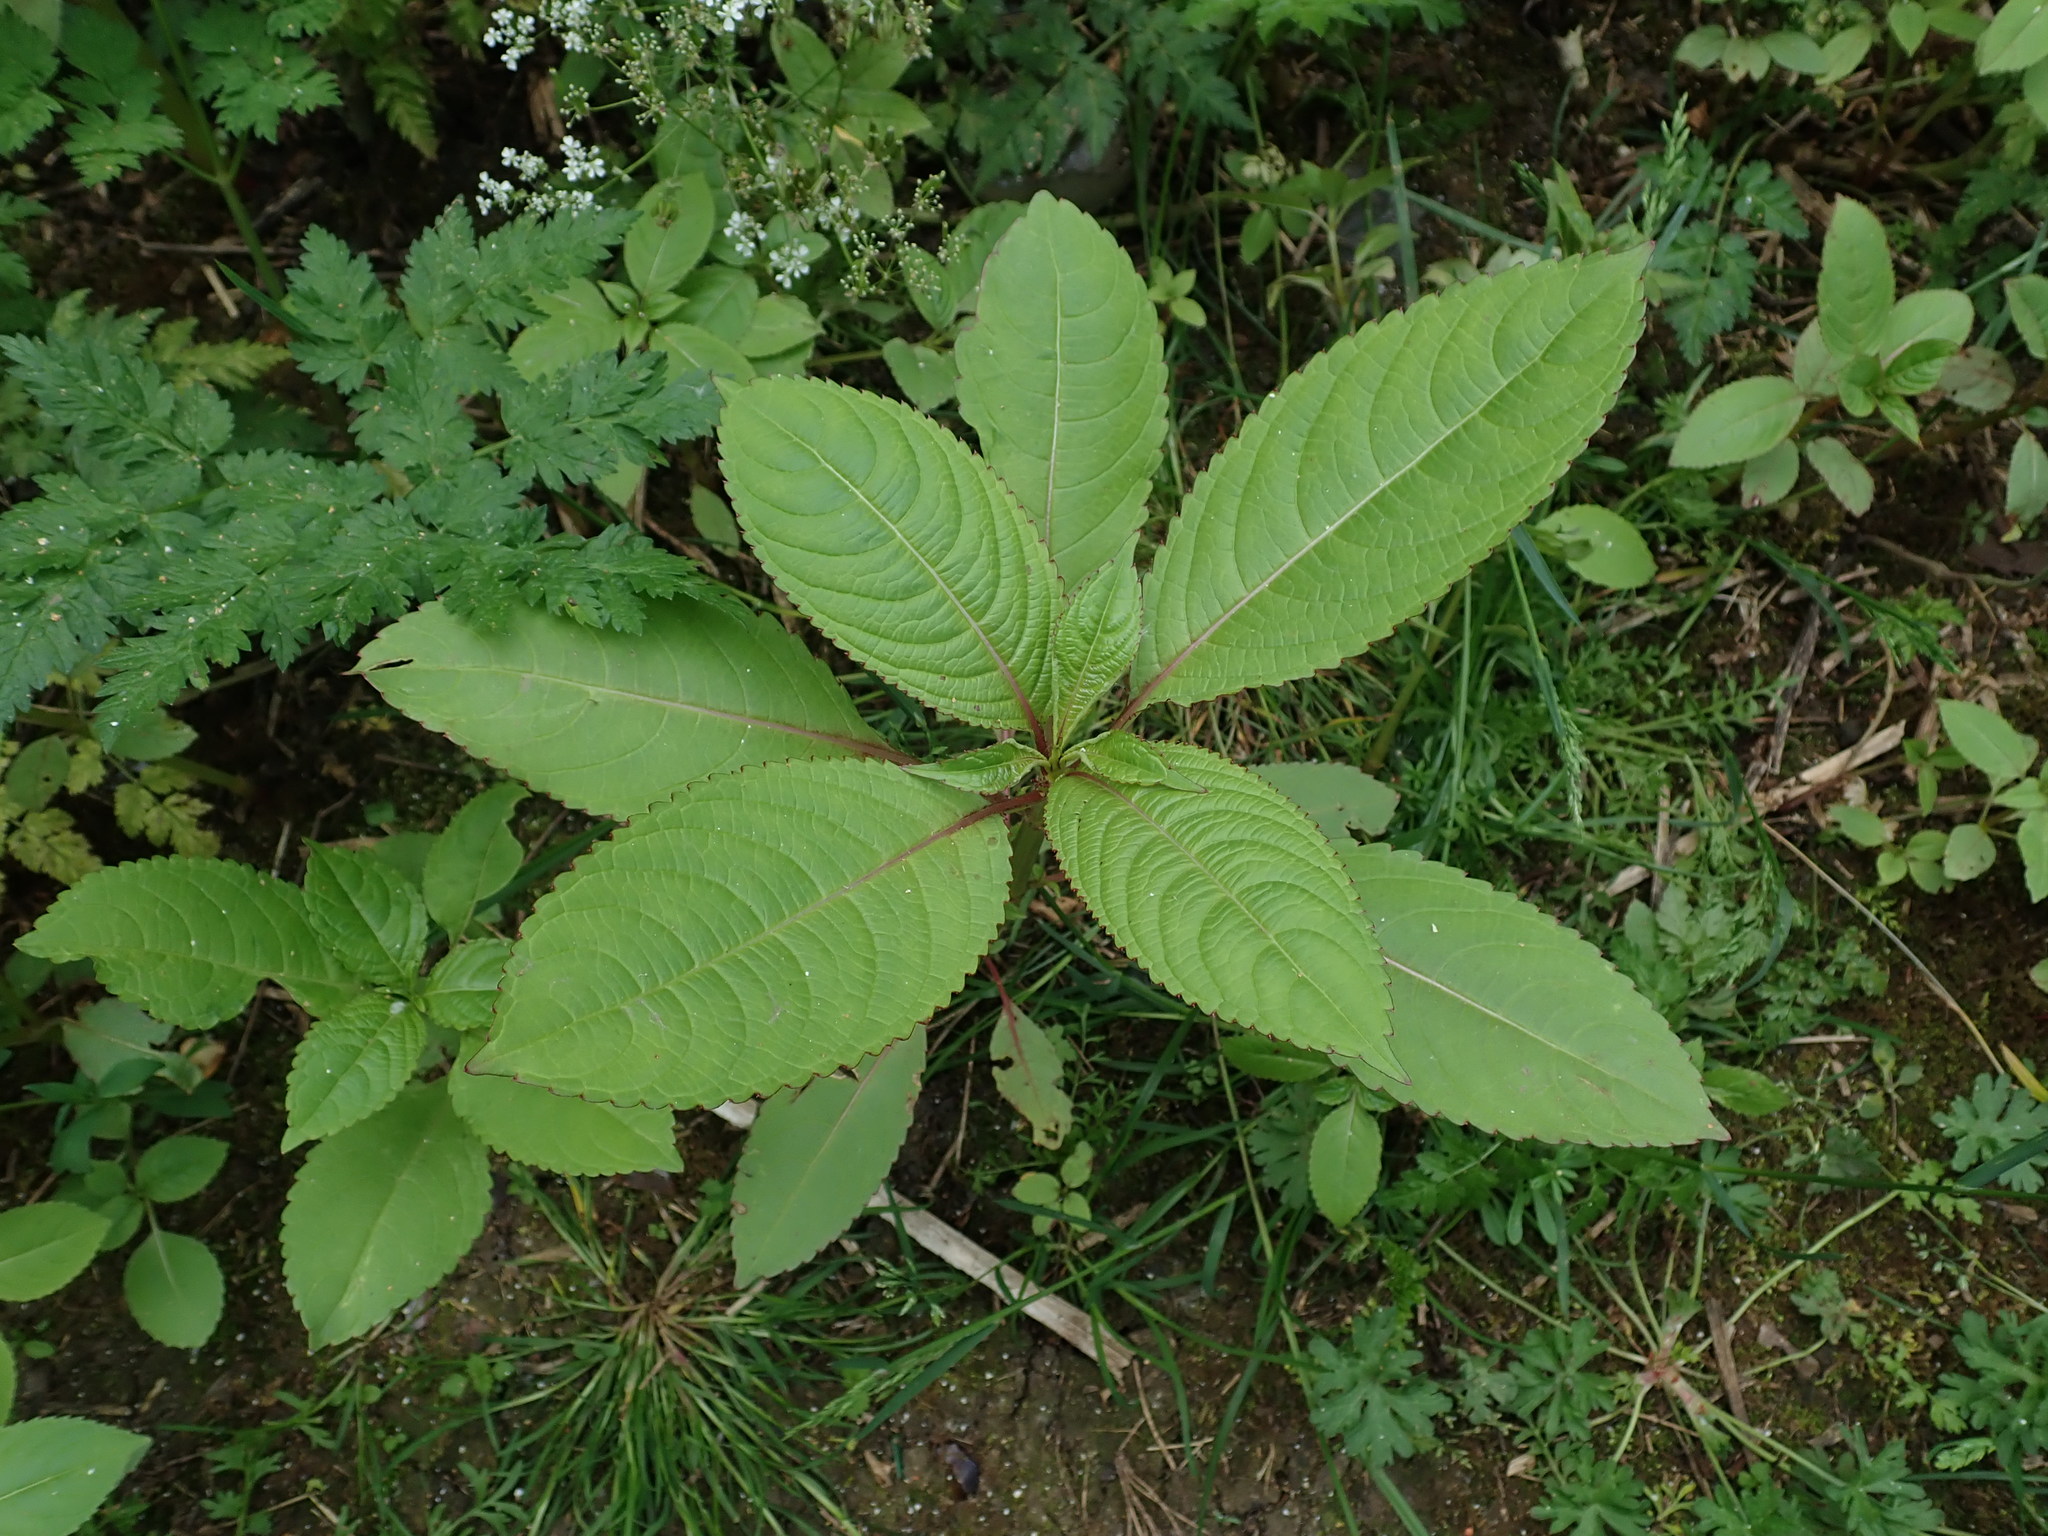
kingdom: Plantae
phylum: Tracheophyta
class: Magnoliopsida
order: Ericales
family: Balsaminaceae
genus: Impatiens
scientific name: Impatiens glandulifera
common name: Himalayan balsam
